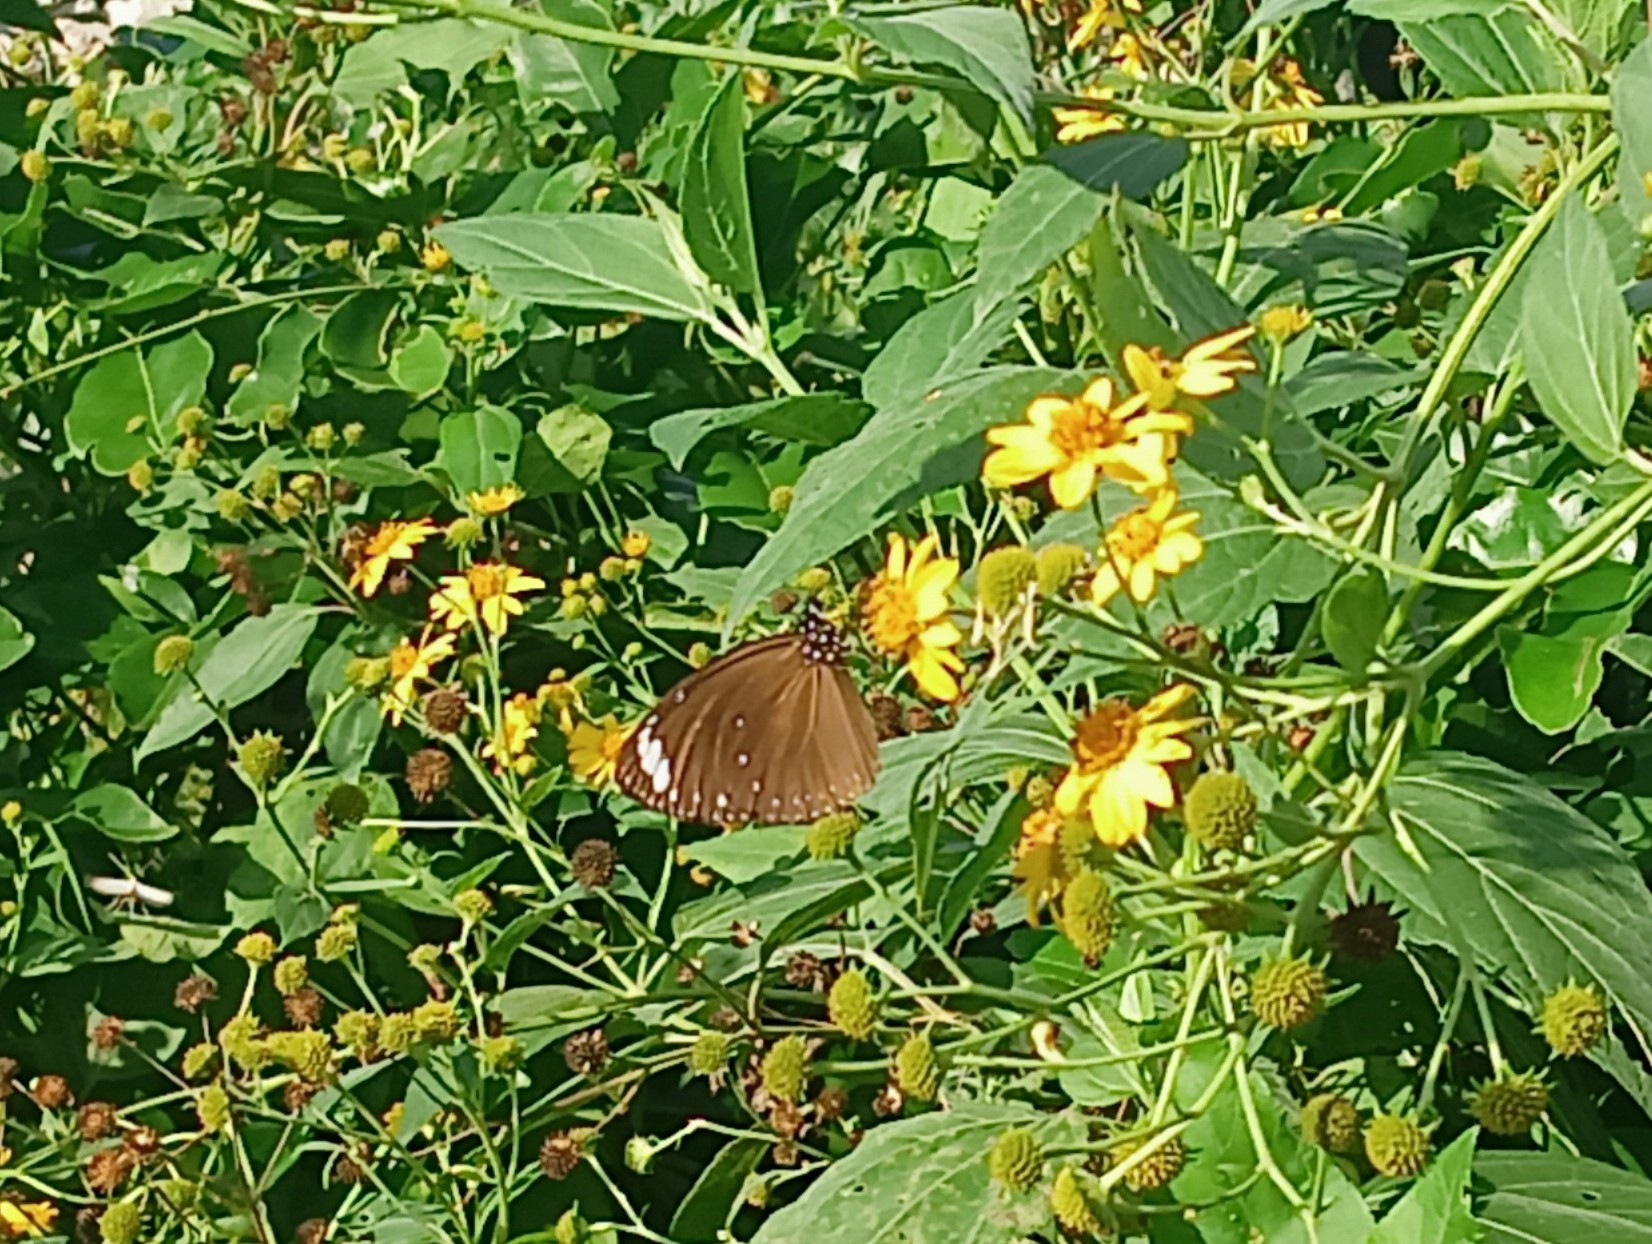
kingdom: Animalia
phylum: Arthropoda
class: Insecta
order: Lepidoptera
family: Nymphalidae
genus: Euploea
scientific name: Euploea tulliolus
